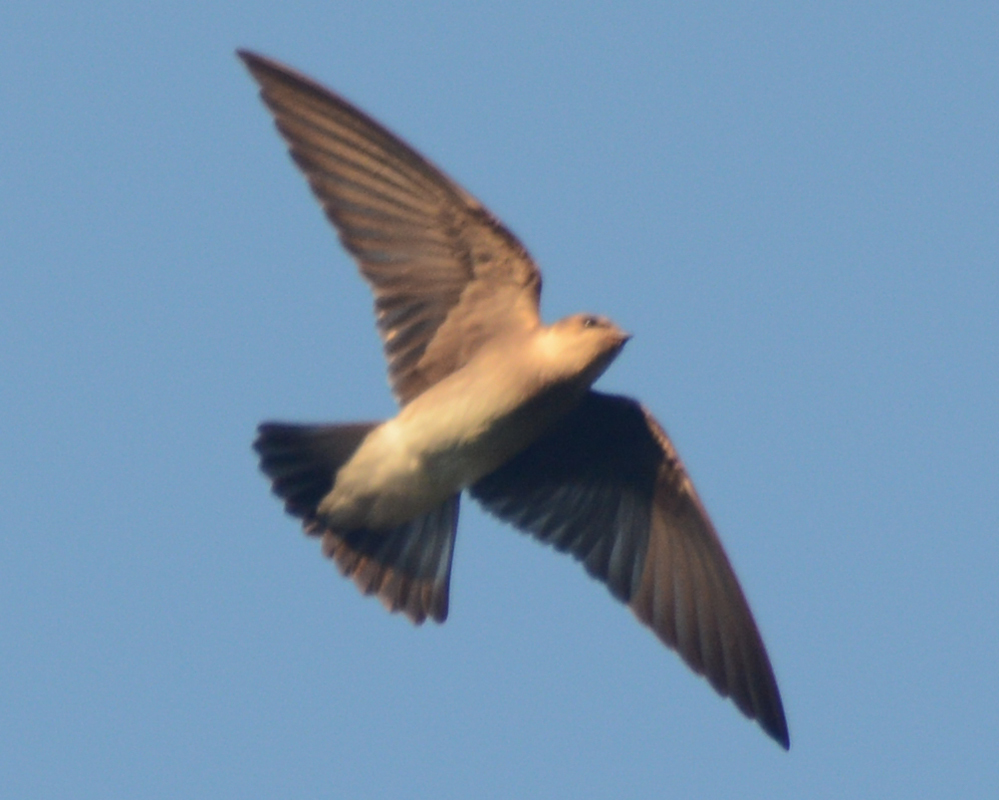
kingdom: Animalia
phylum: Chordata
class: Aves
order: Passeriformes
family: Hirundinidae
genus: Stelgidopteryx
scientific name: Stelgidopteryx serripennis
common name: Northern rough-winged swallow
